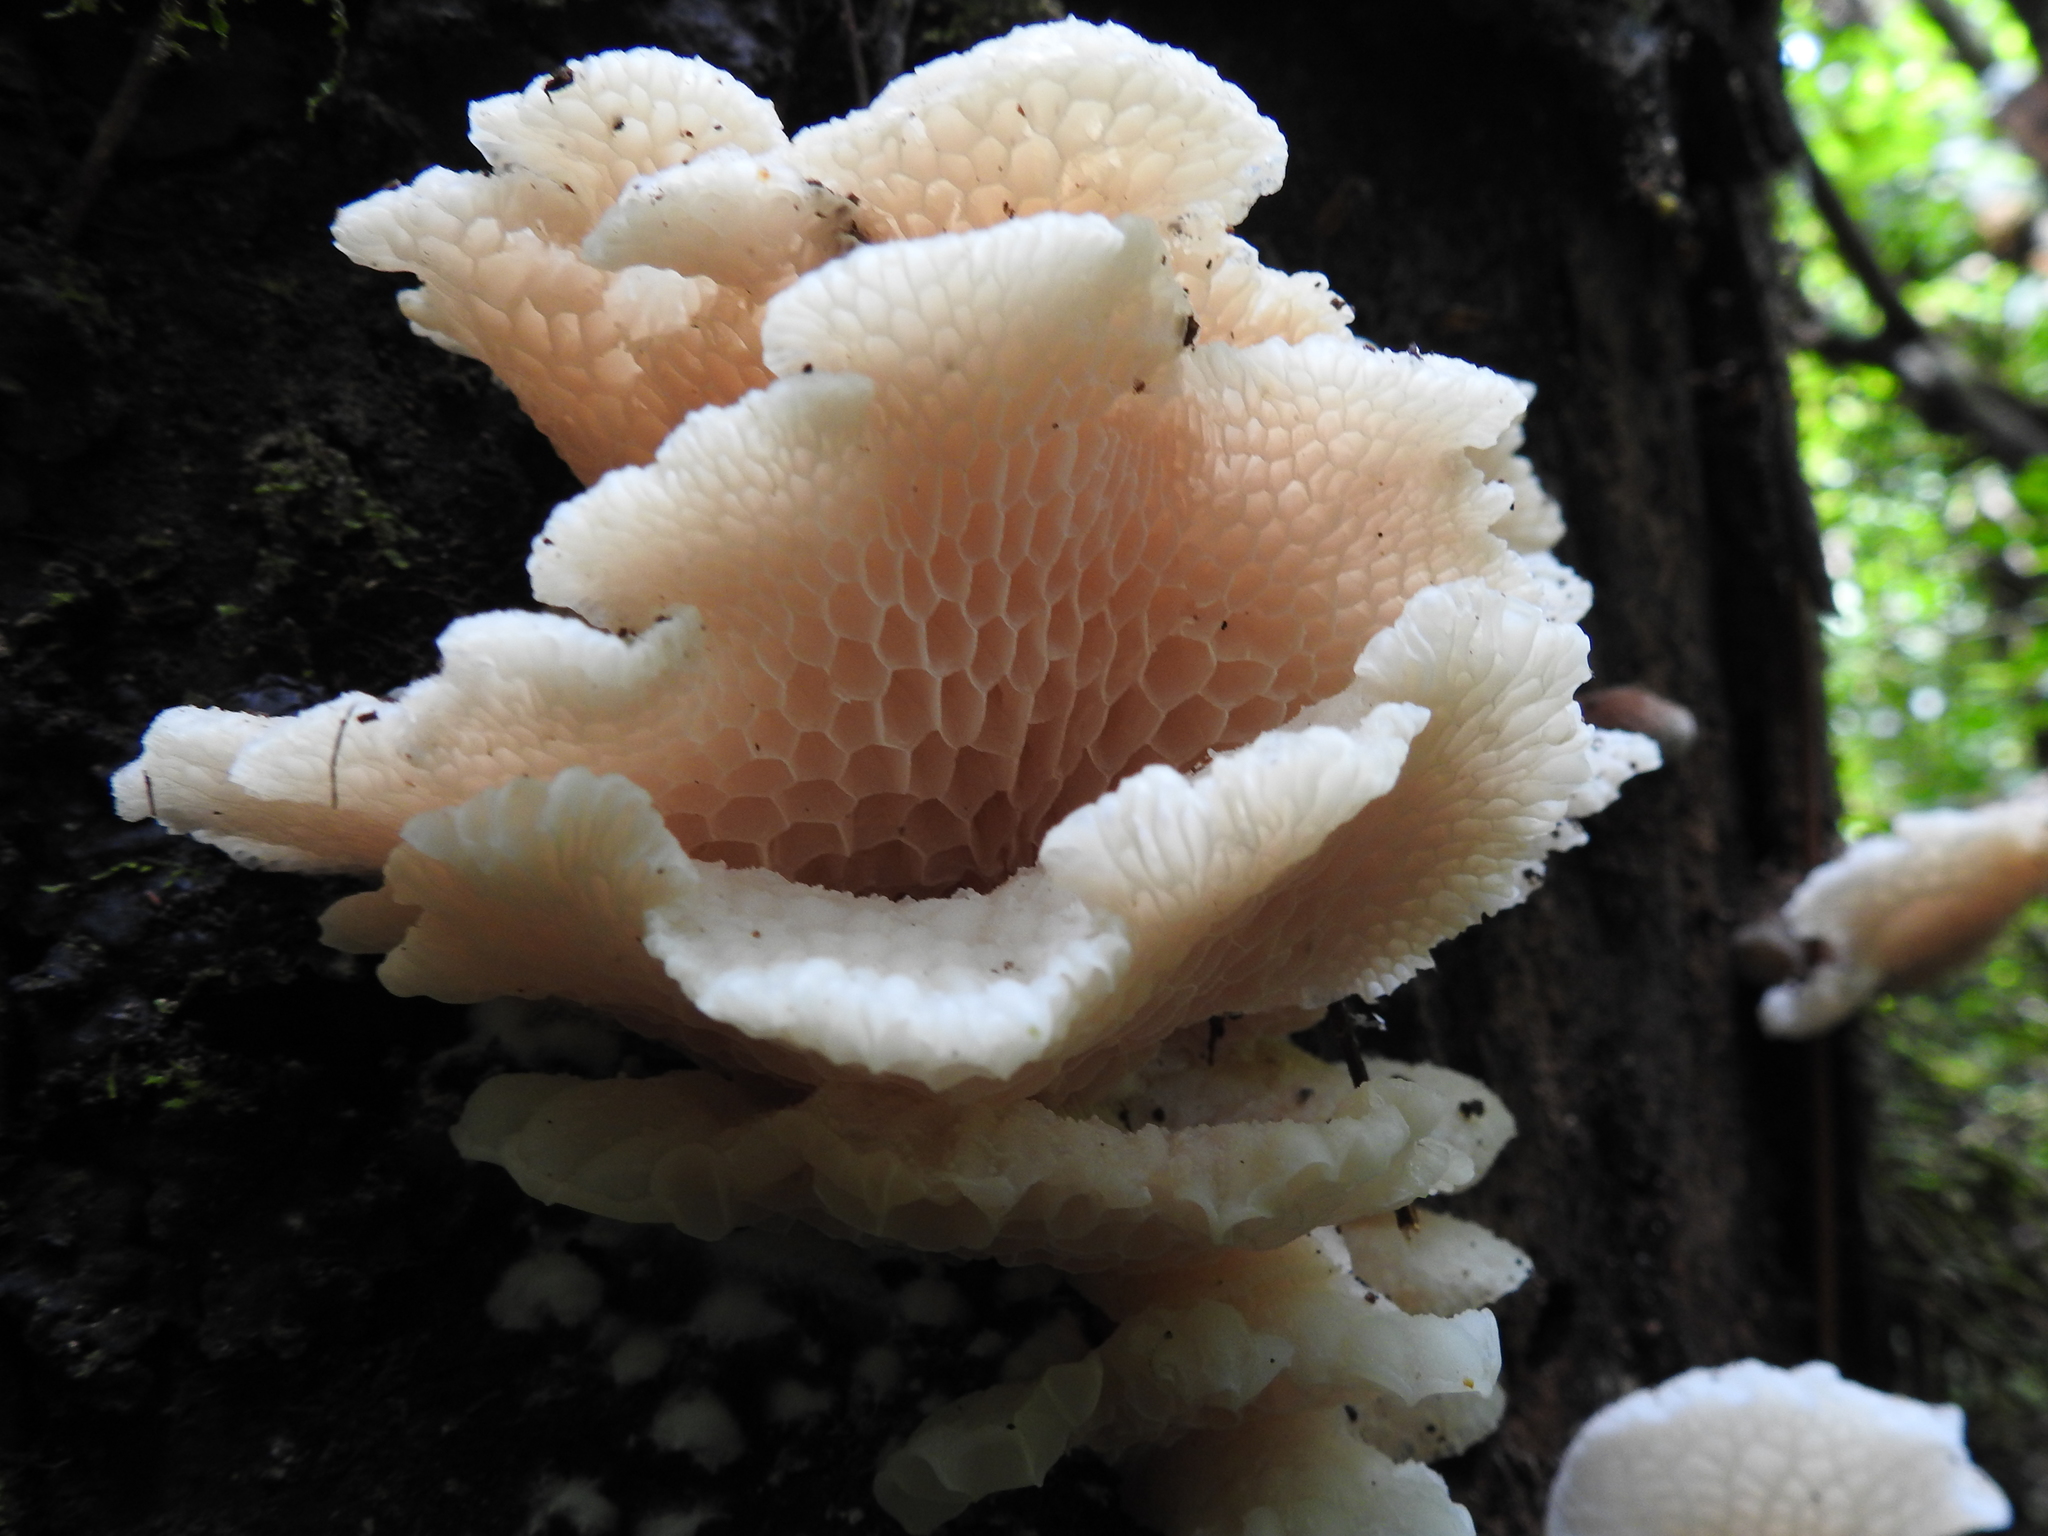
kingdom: Fungi
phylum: Basidiomycota
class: Agaricomycetes
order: Agaricales
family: Mycenaceae
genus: Favolaschia
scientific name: Favolaschia pustulosa
